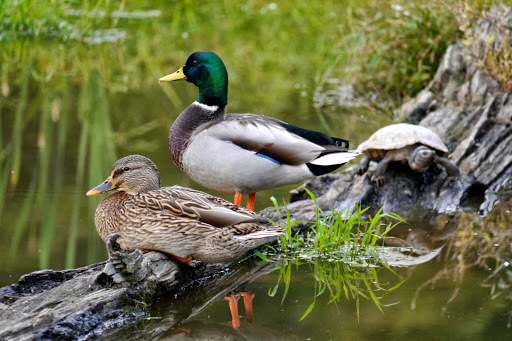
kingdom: Animalia
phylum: Chordata
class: Aves
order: Anseriformes
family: Anatidae
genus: Anas
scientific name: Anas platyrhynchos
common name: Mallard
